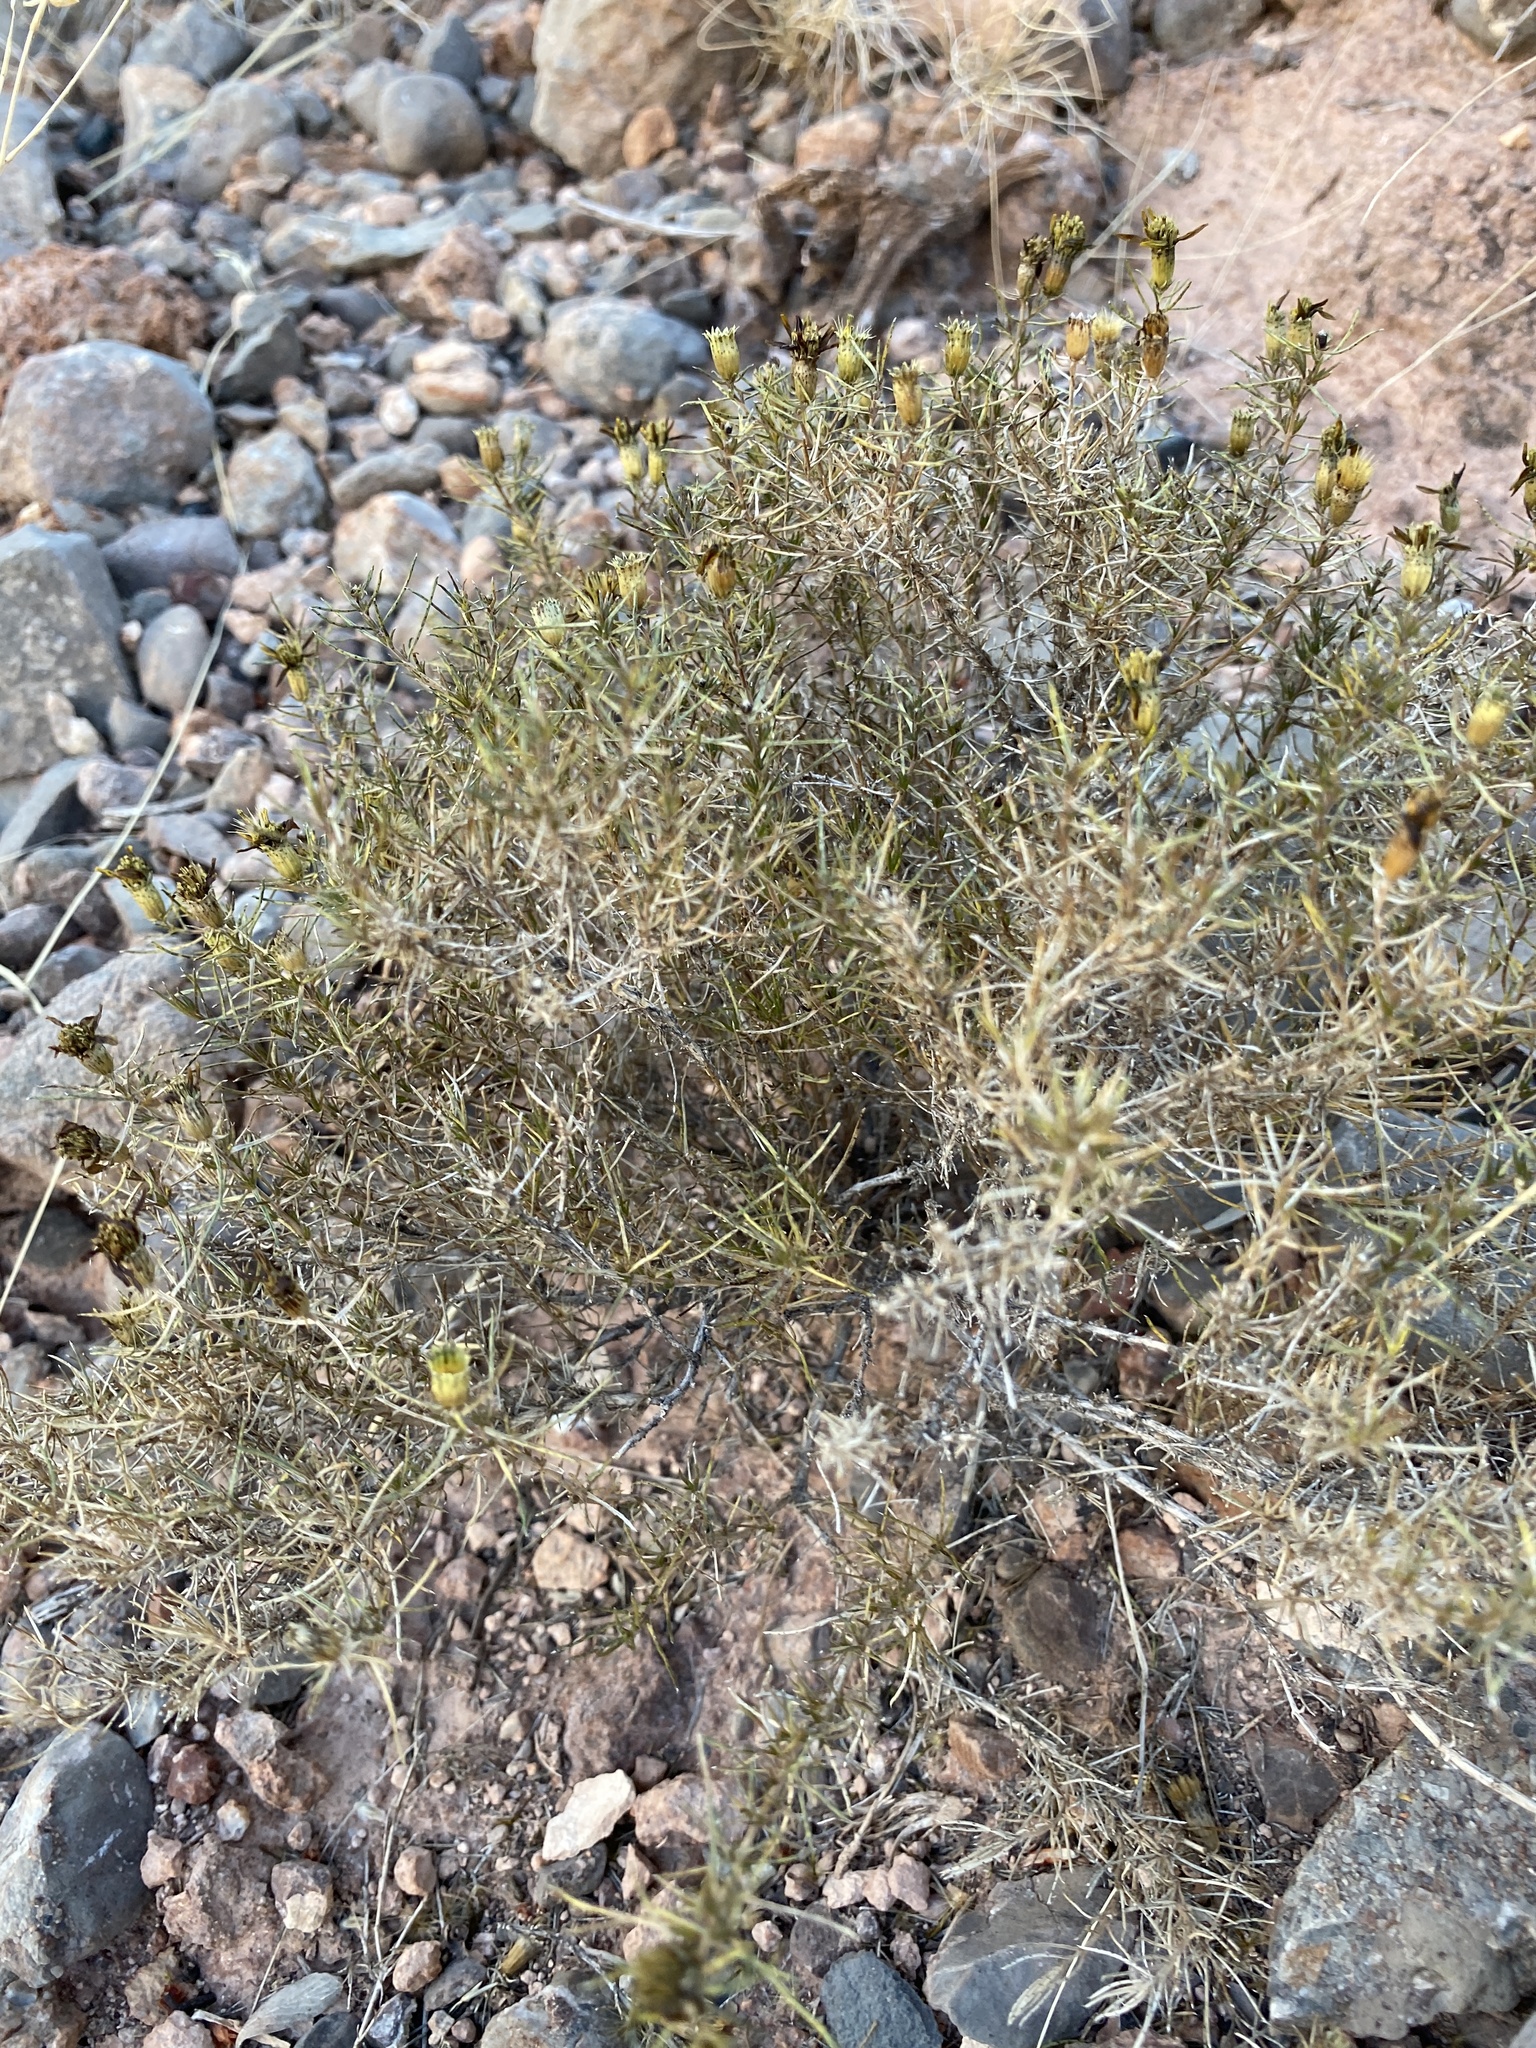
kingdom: Plantae
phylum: Tracheophyta
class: Magnoliopsida
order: Asterales
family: Asteraceae
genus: Thymophylla
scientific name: Thymophylla acerosa
